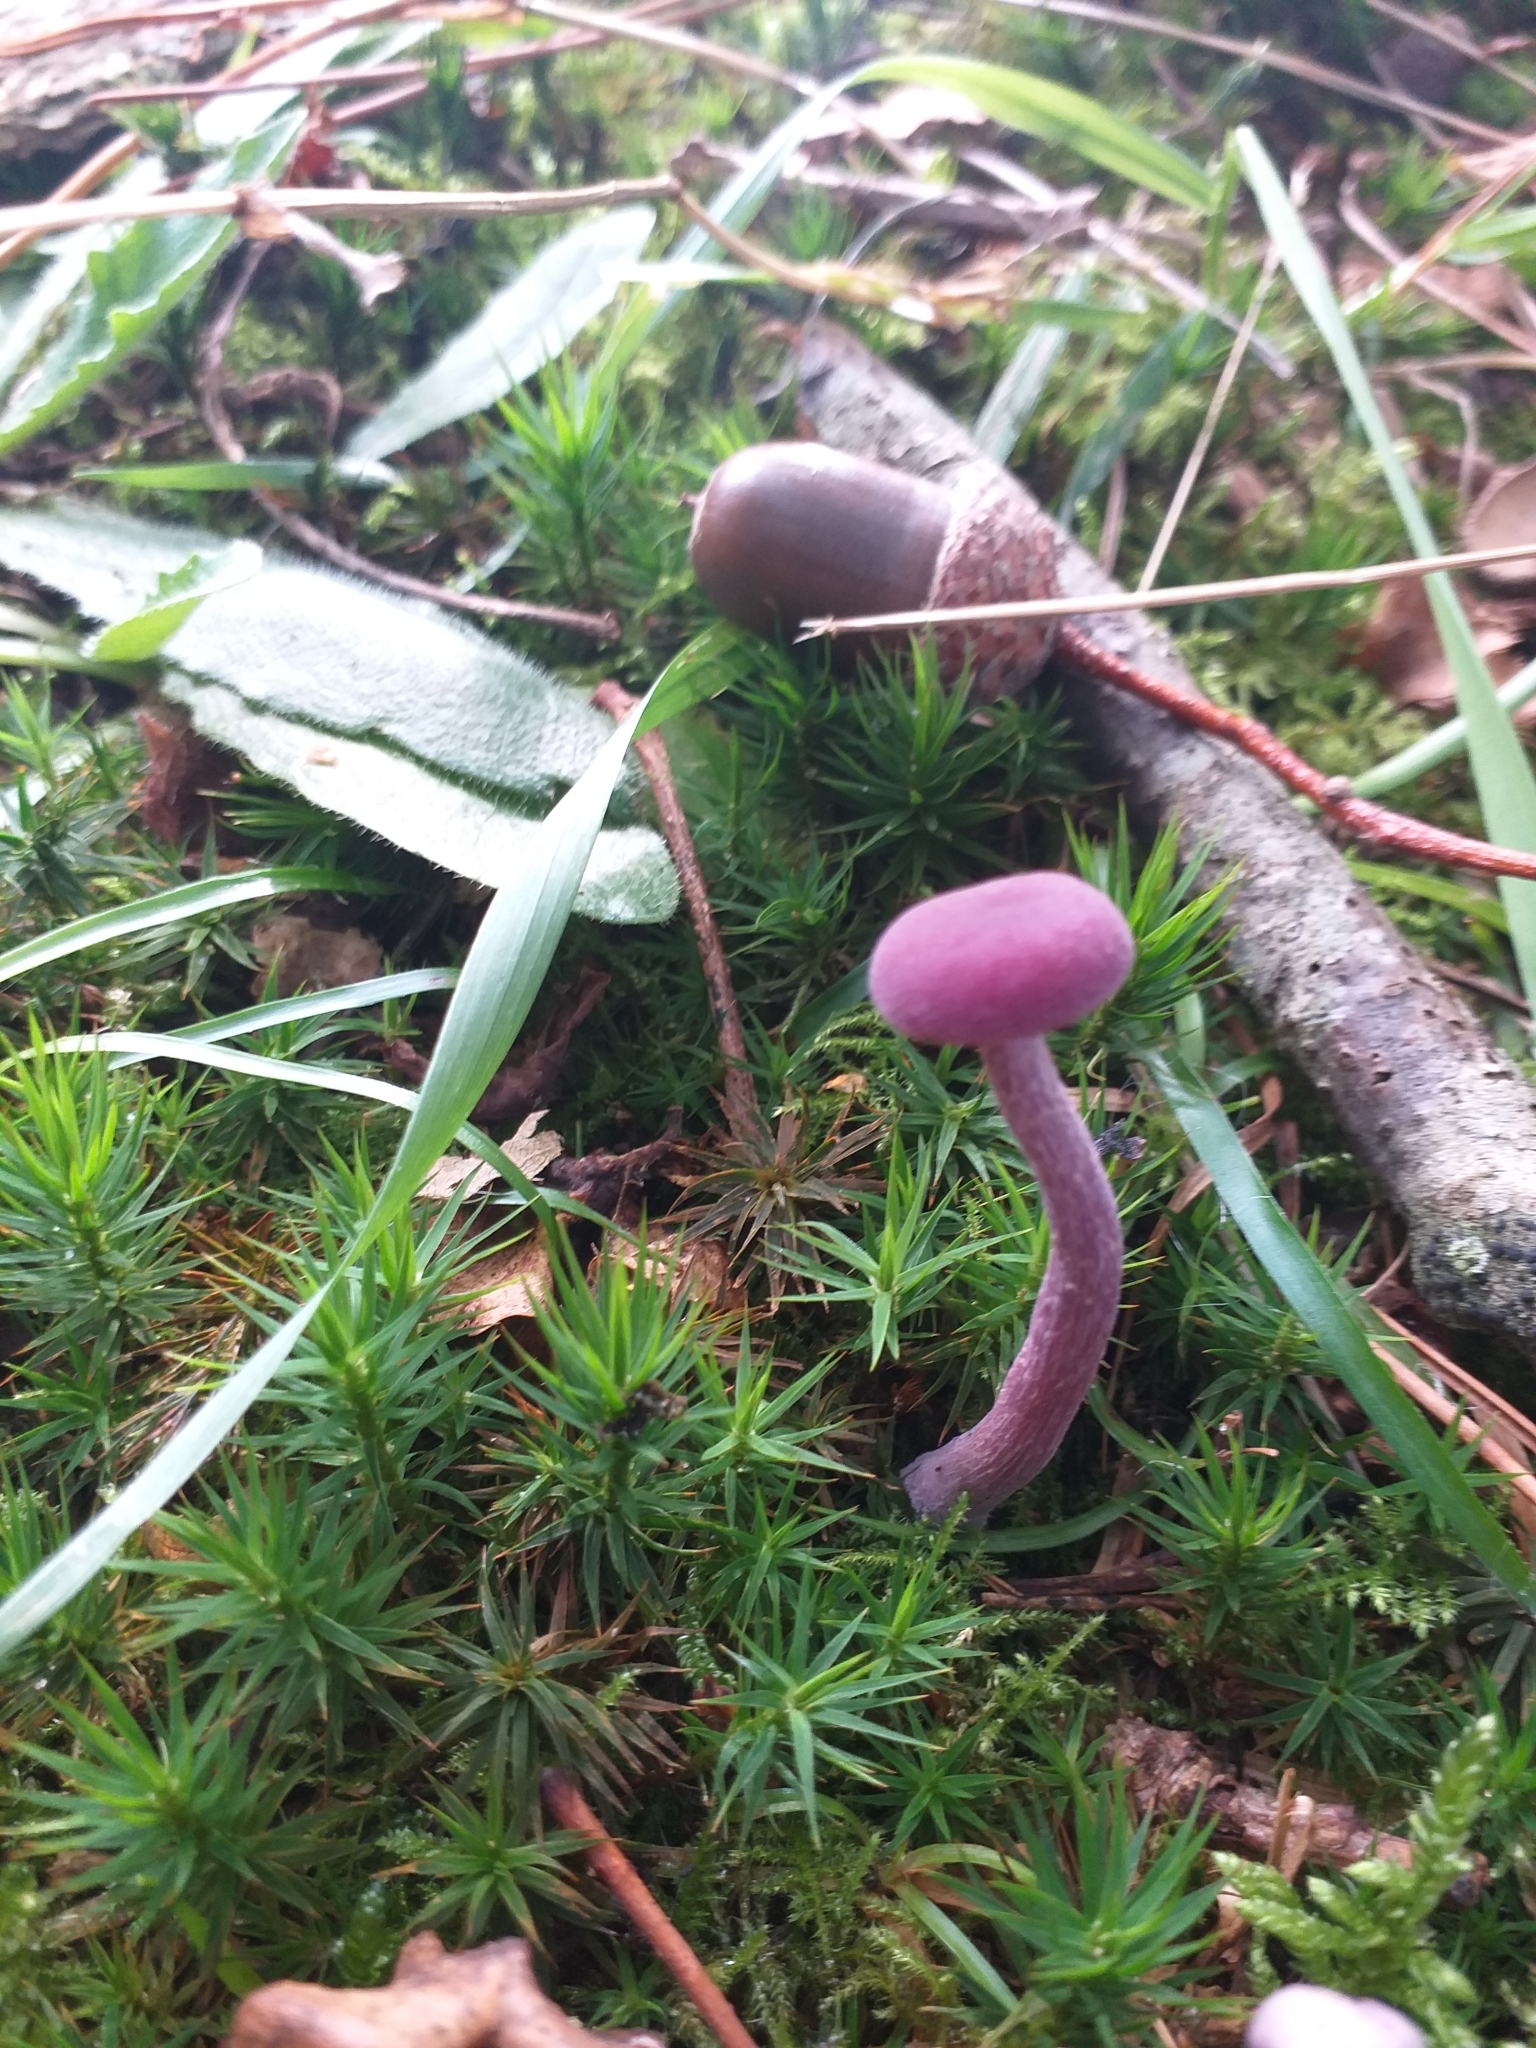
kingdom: Fungi
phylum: Basidiomycota
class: Agaricomycetes
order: Agaricales
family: Hydnangiaceae
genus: Laccaria
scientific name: Laccaria amethystina
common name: Amethyst deceiver
